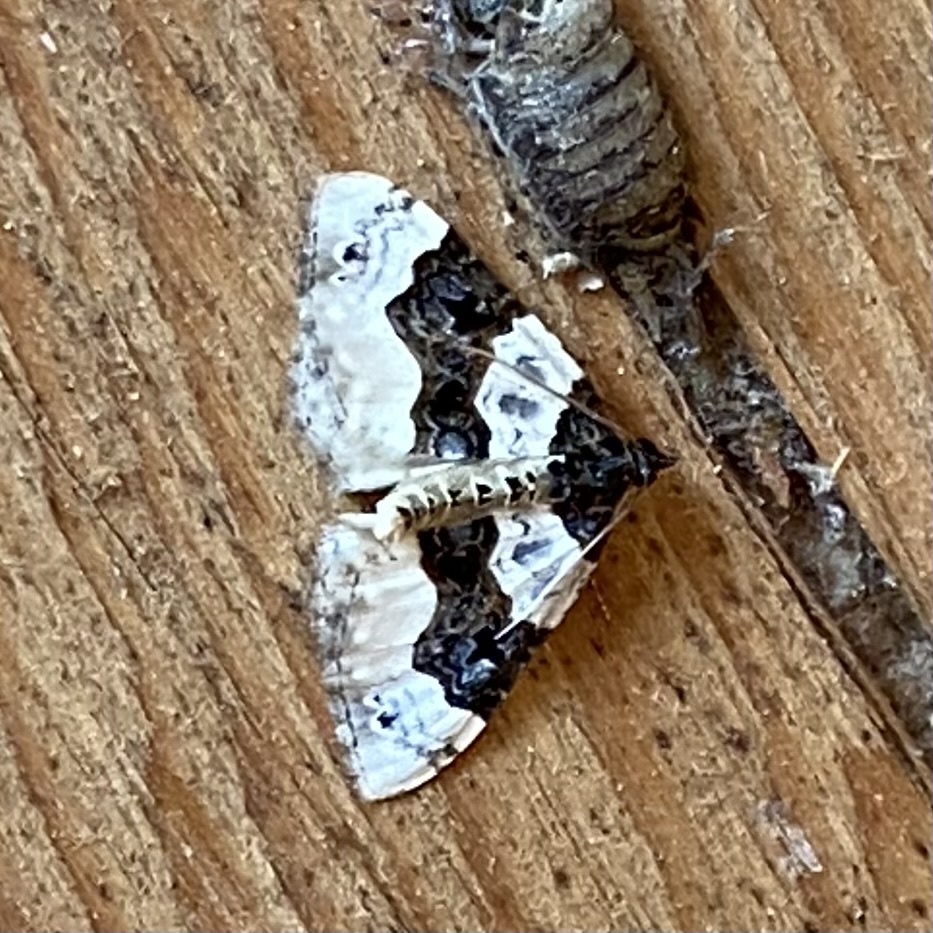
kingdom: Animalia
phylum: Arthropoda
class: Insecta
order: Lepidoptera
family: Geometridae
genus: Cosmorhoe
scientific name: Cosmorhoe ocellata
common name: Purple bar
